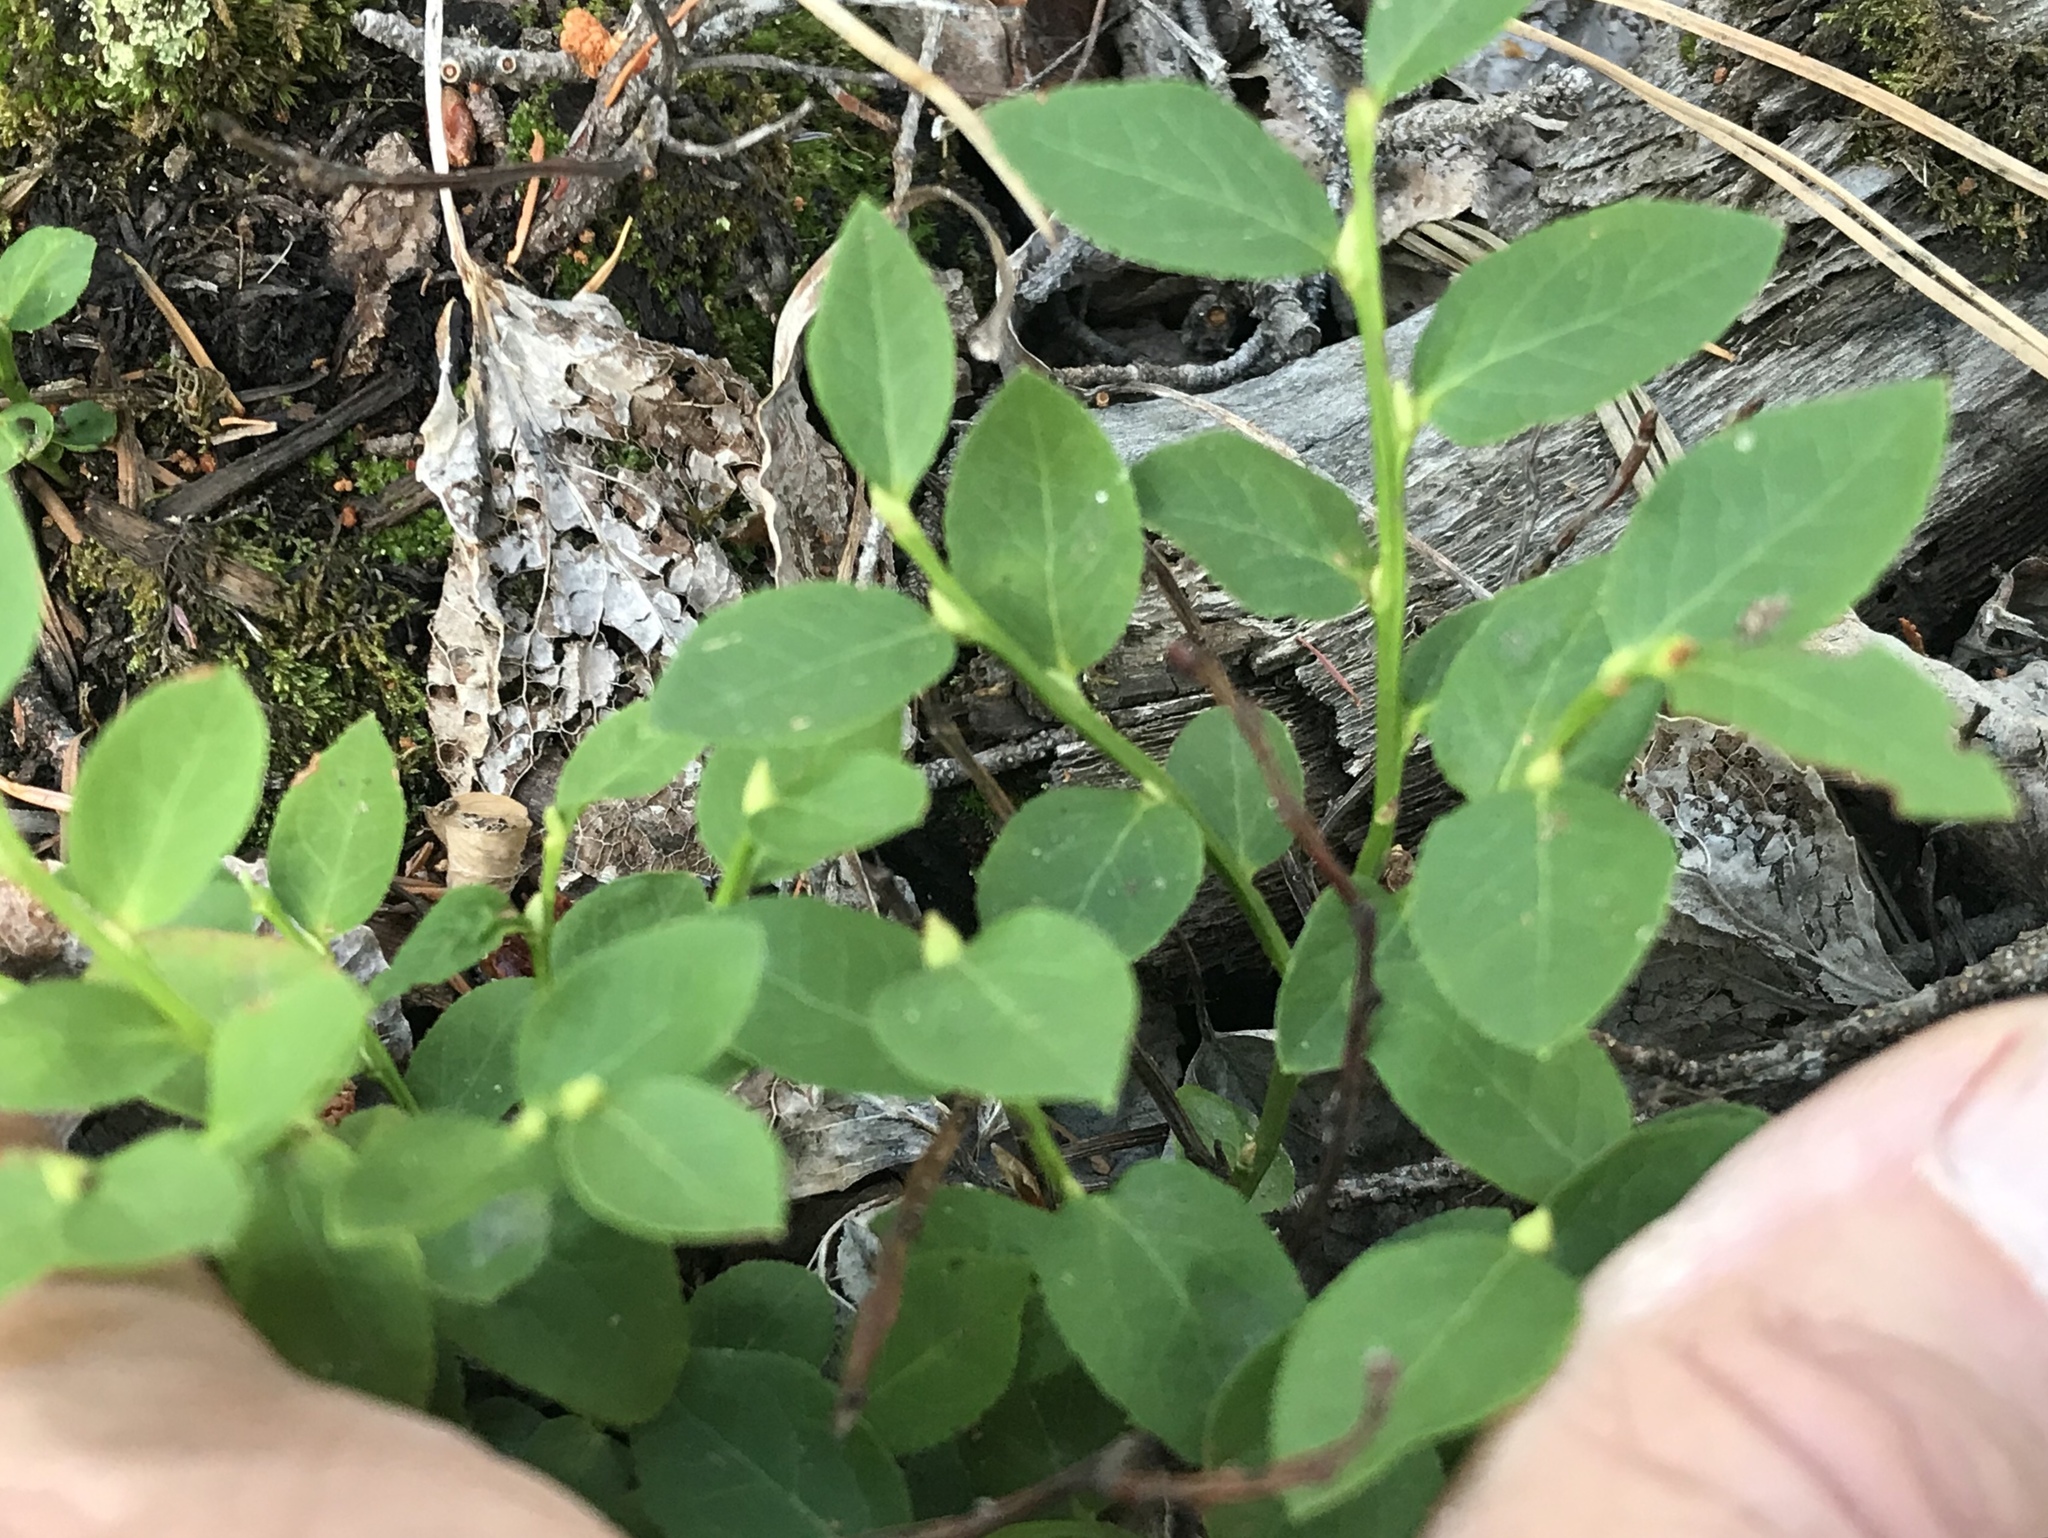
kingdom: Plantae
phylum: Tracheophyta
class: Magnoliopsida
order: Ericales
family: Ericaceae
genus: Vaccinium
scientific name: Vaccinium myrtillus
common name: Bilberry
